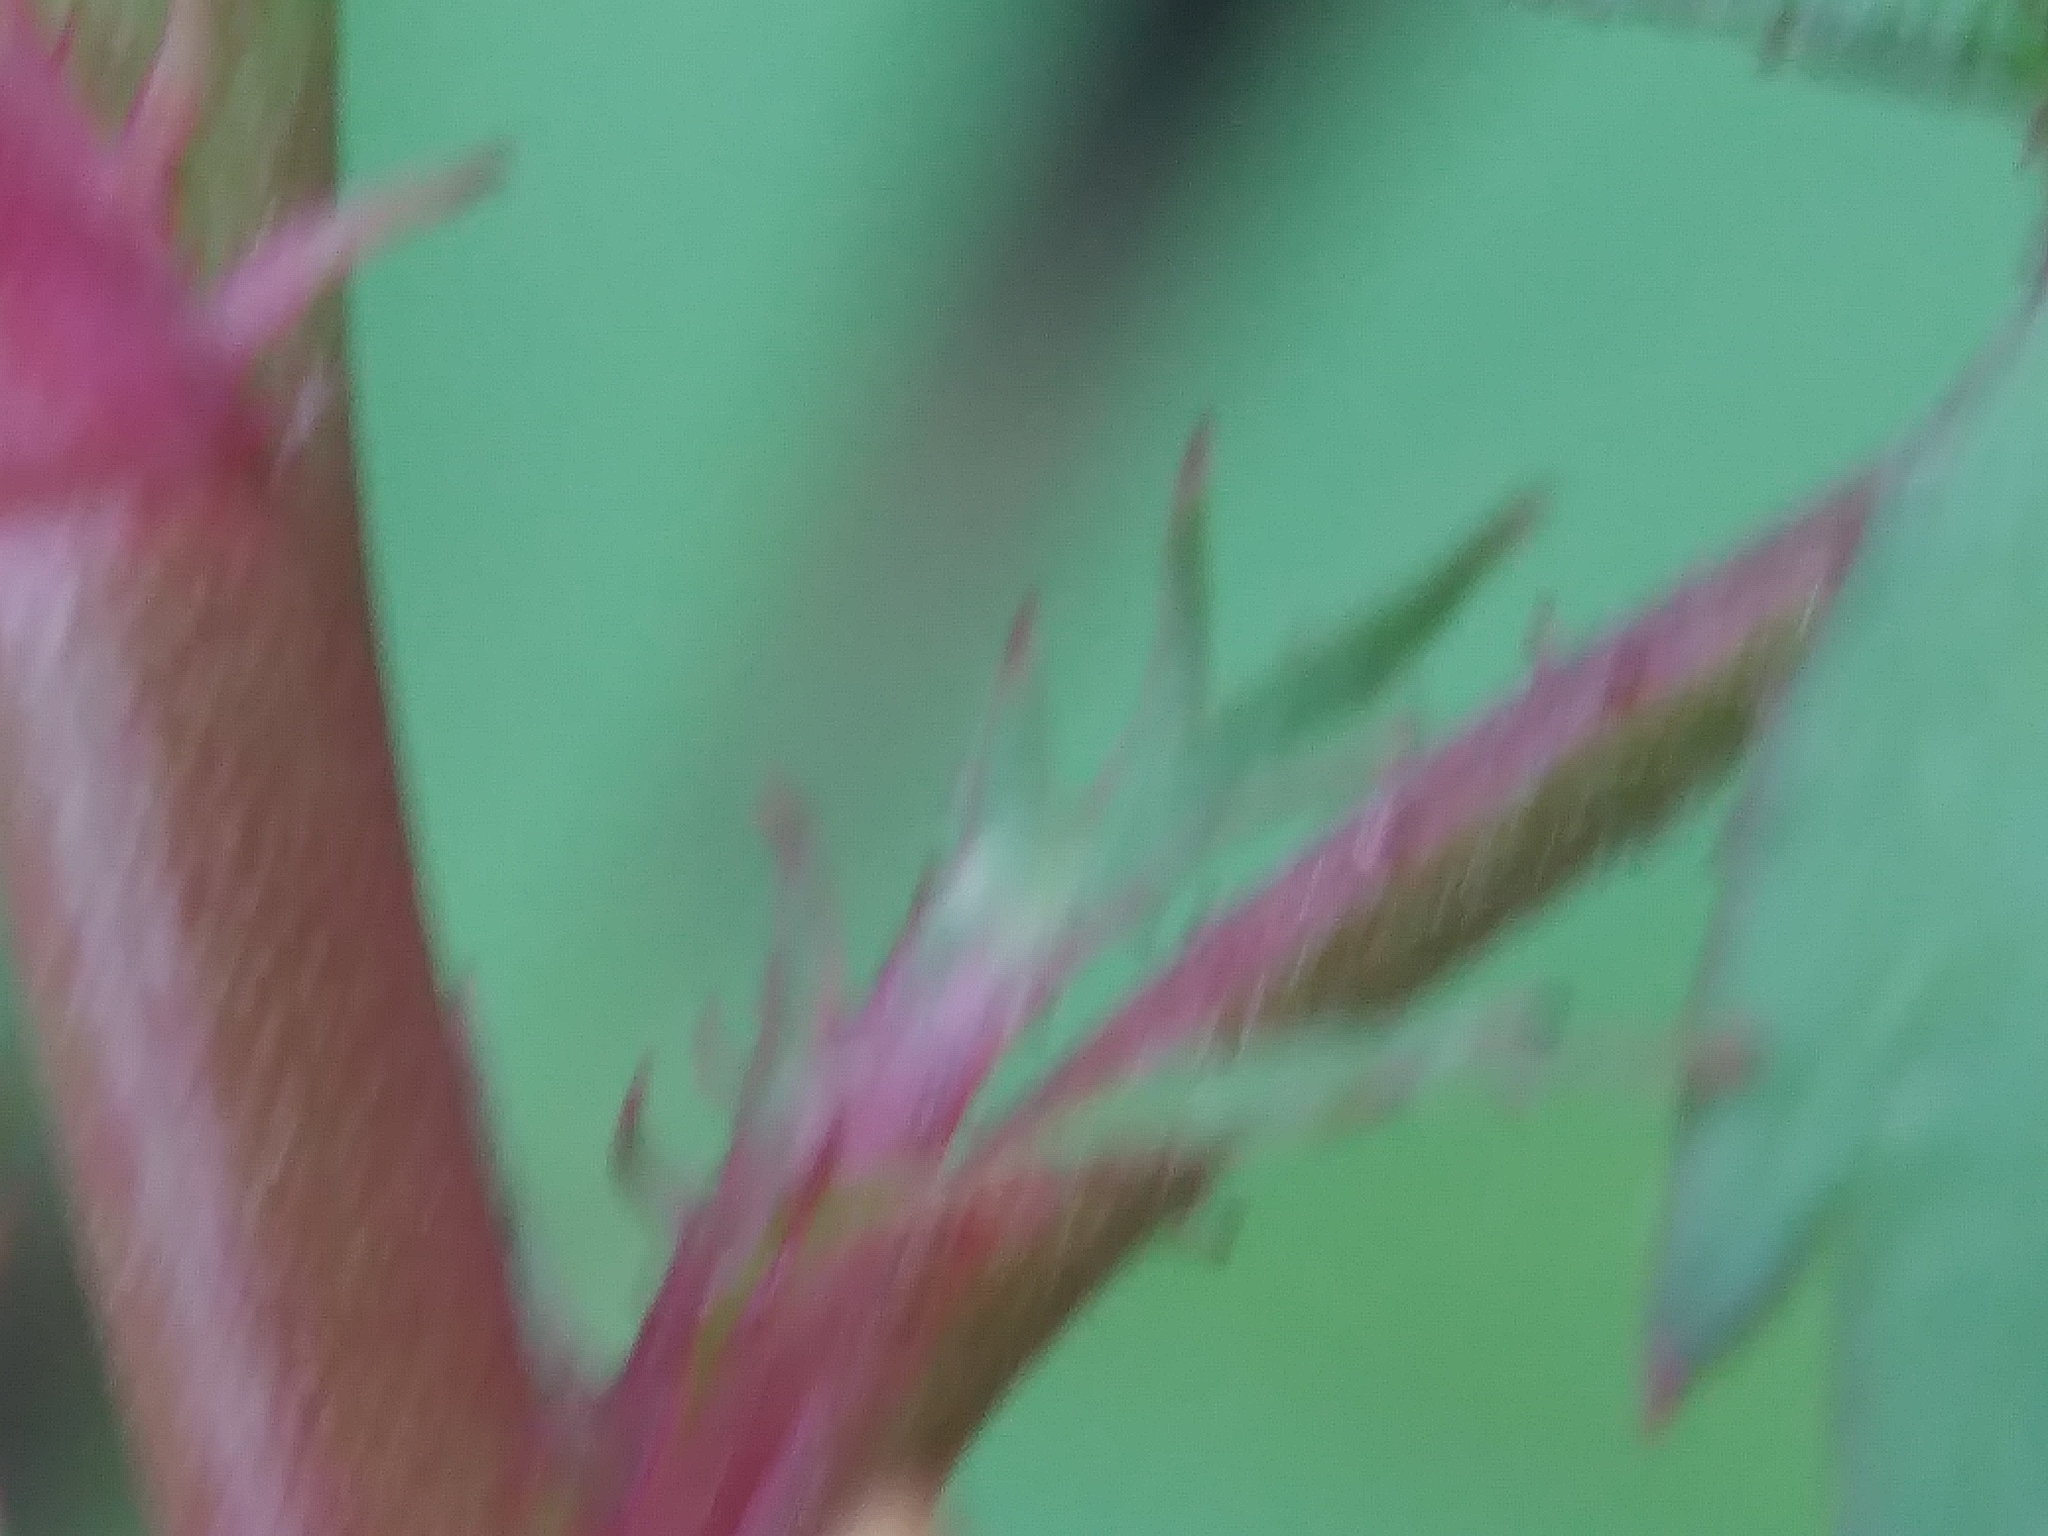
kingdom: Plantae
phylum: Tracheophyta
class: Magnoliopsida
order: Rosales
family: Rosaceae
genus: Rosa
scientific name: Rosa multiflora
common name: Multiflora rose
